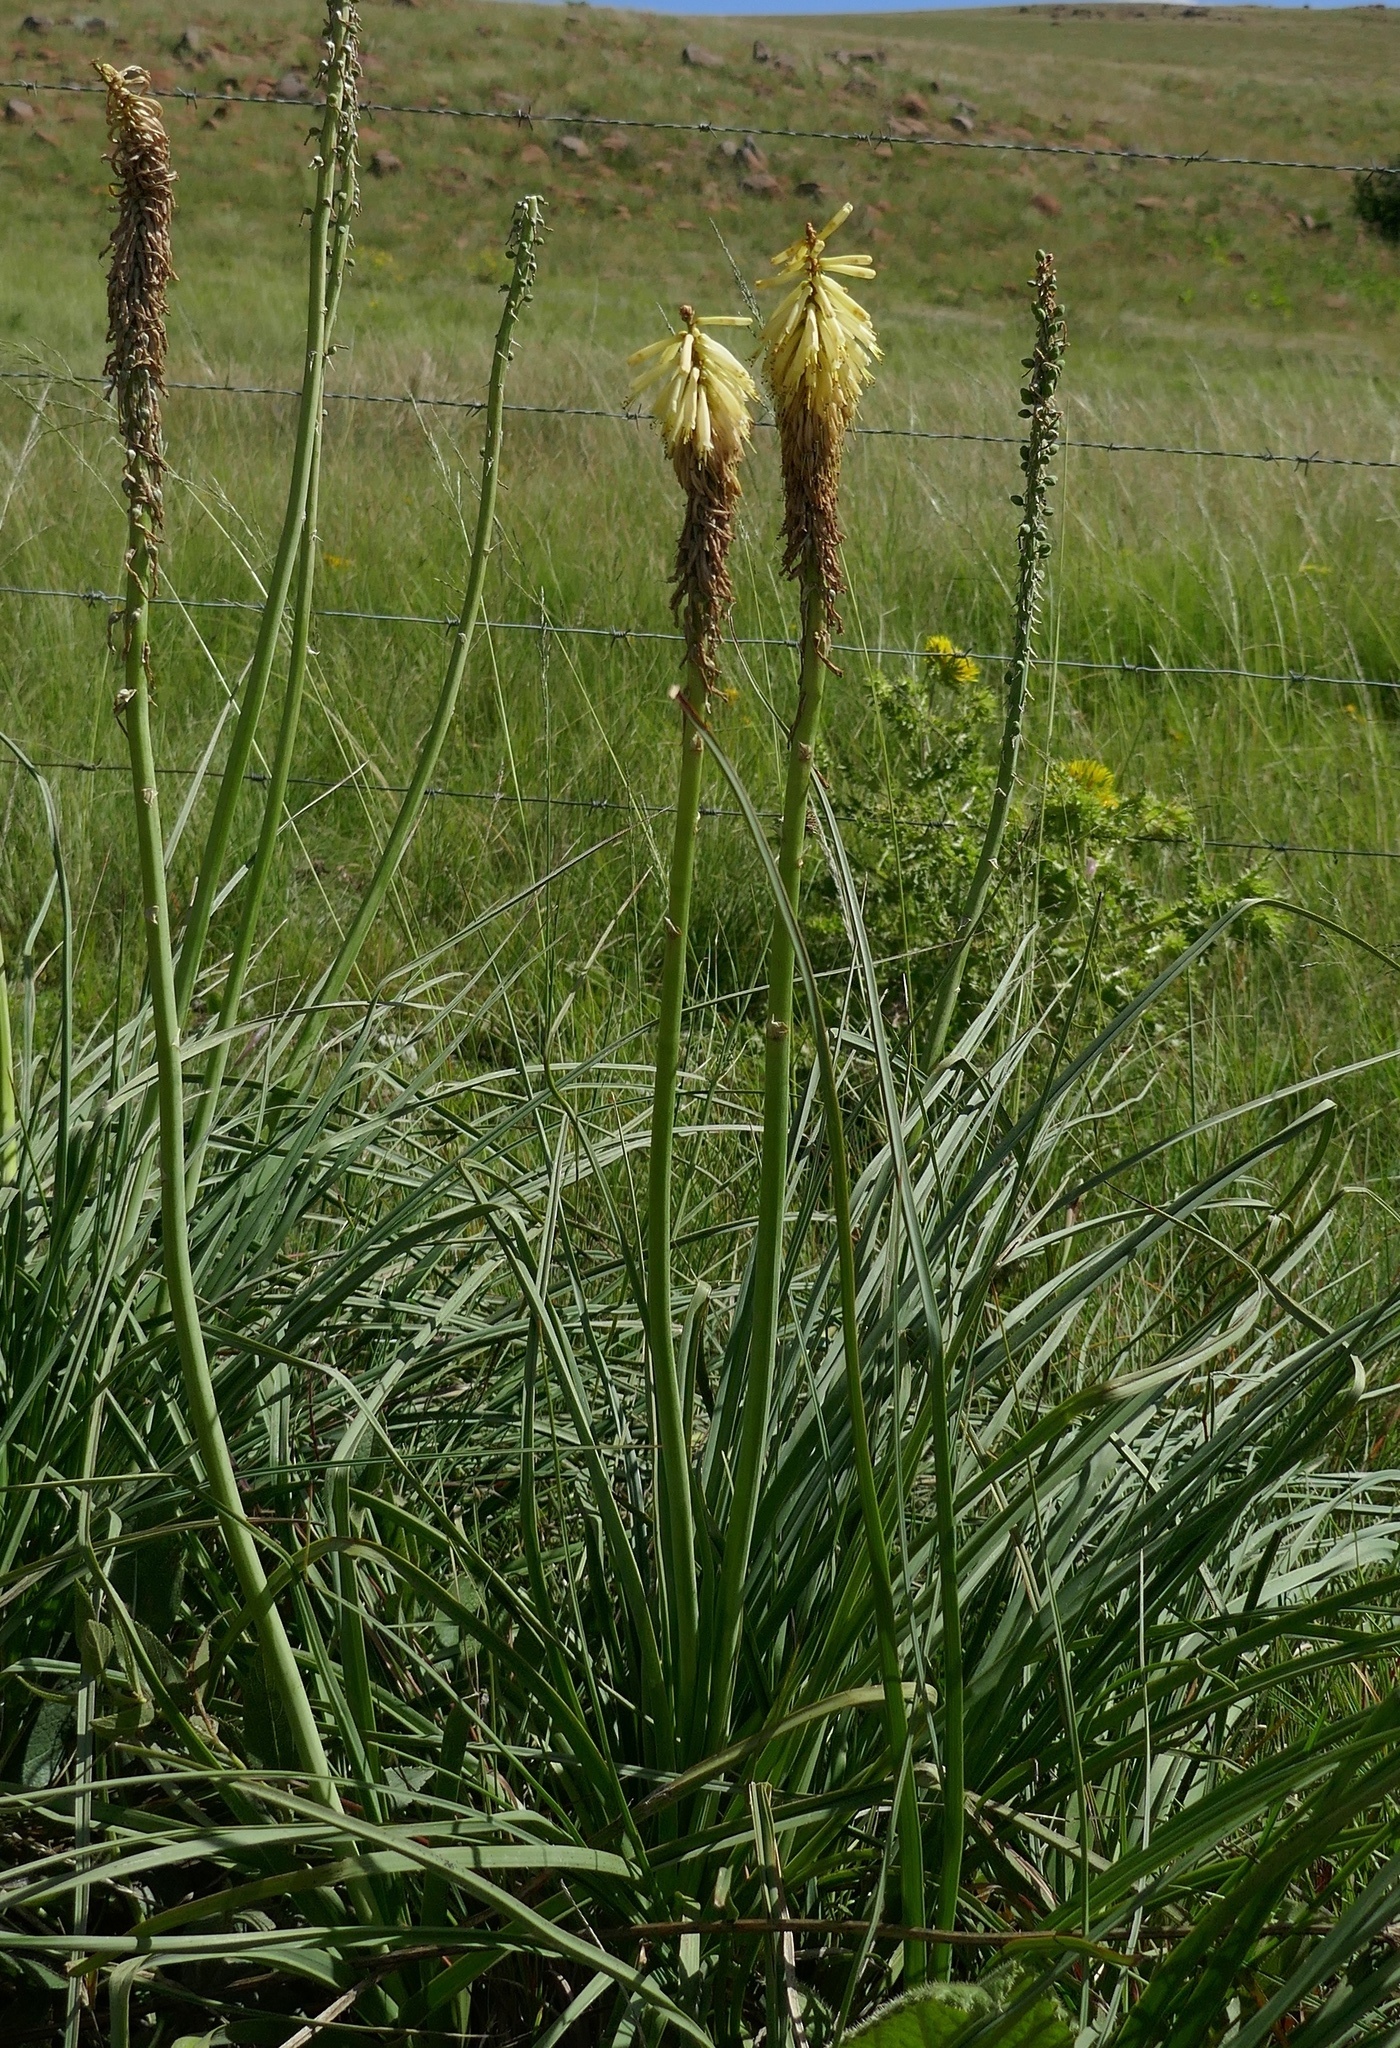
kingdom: Plantae
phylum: Tracheophyta
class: Liliopsida
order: Asparagales
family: Asphodelaceae
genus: Kniphofia
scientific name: Kniphofia albescens
